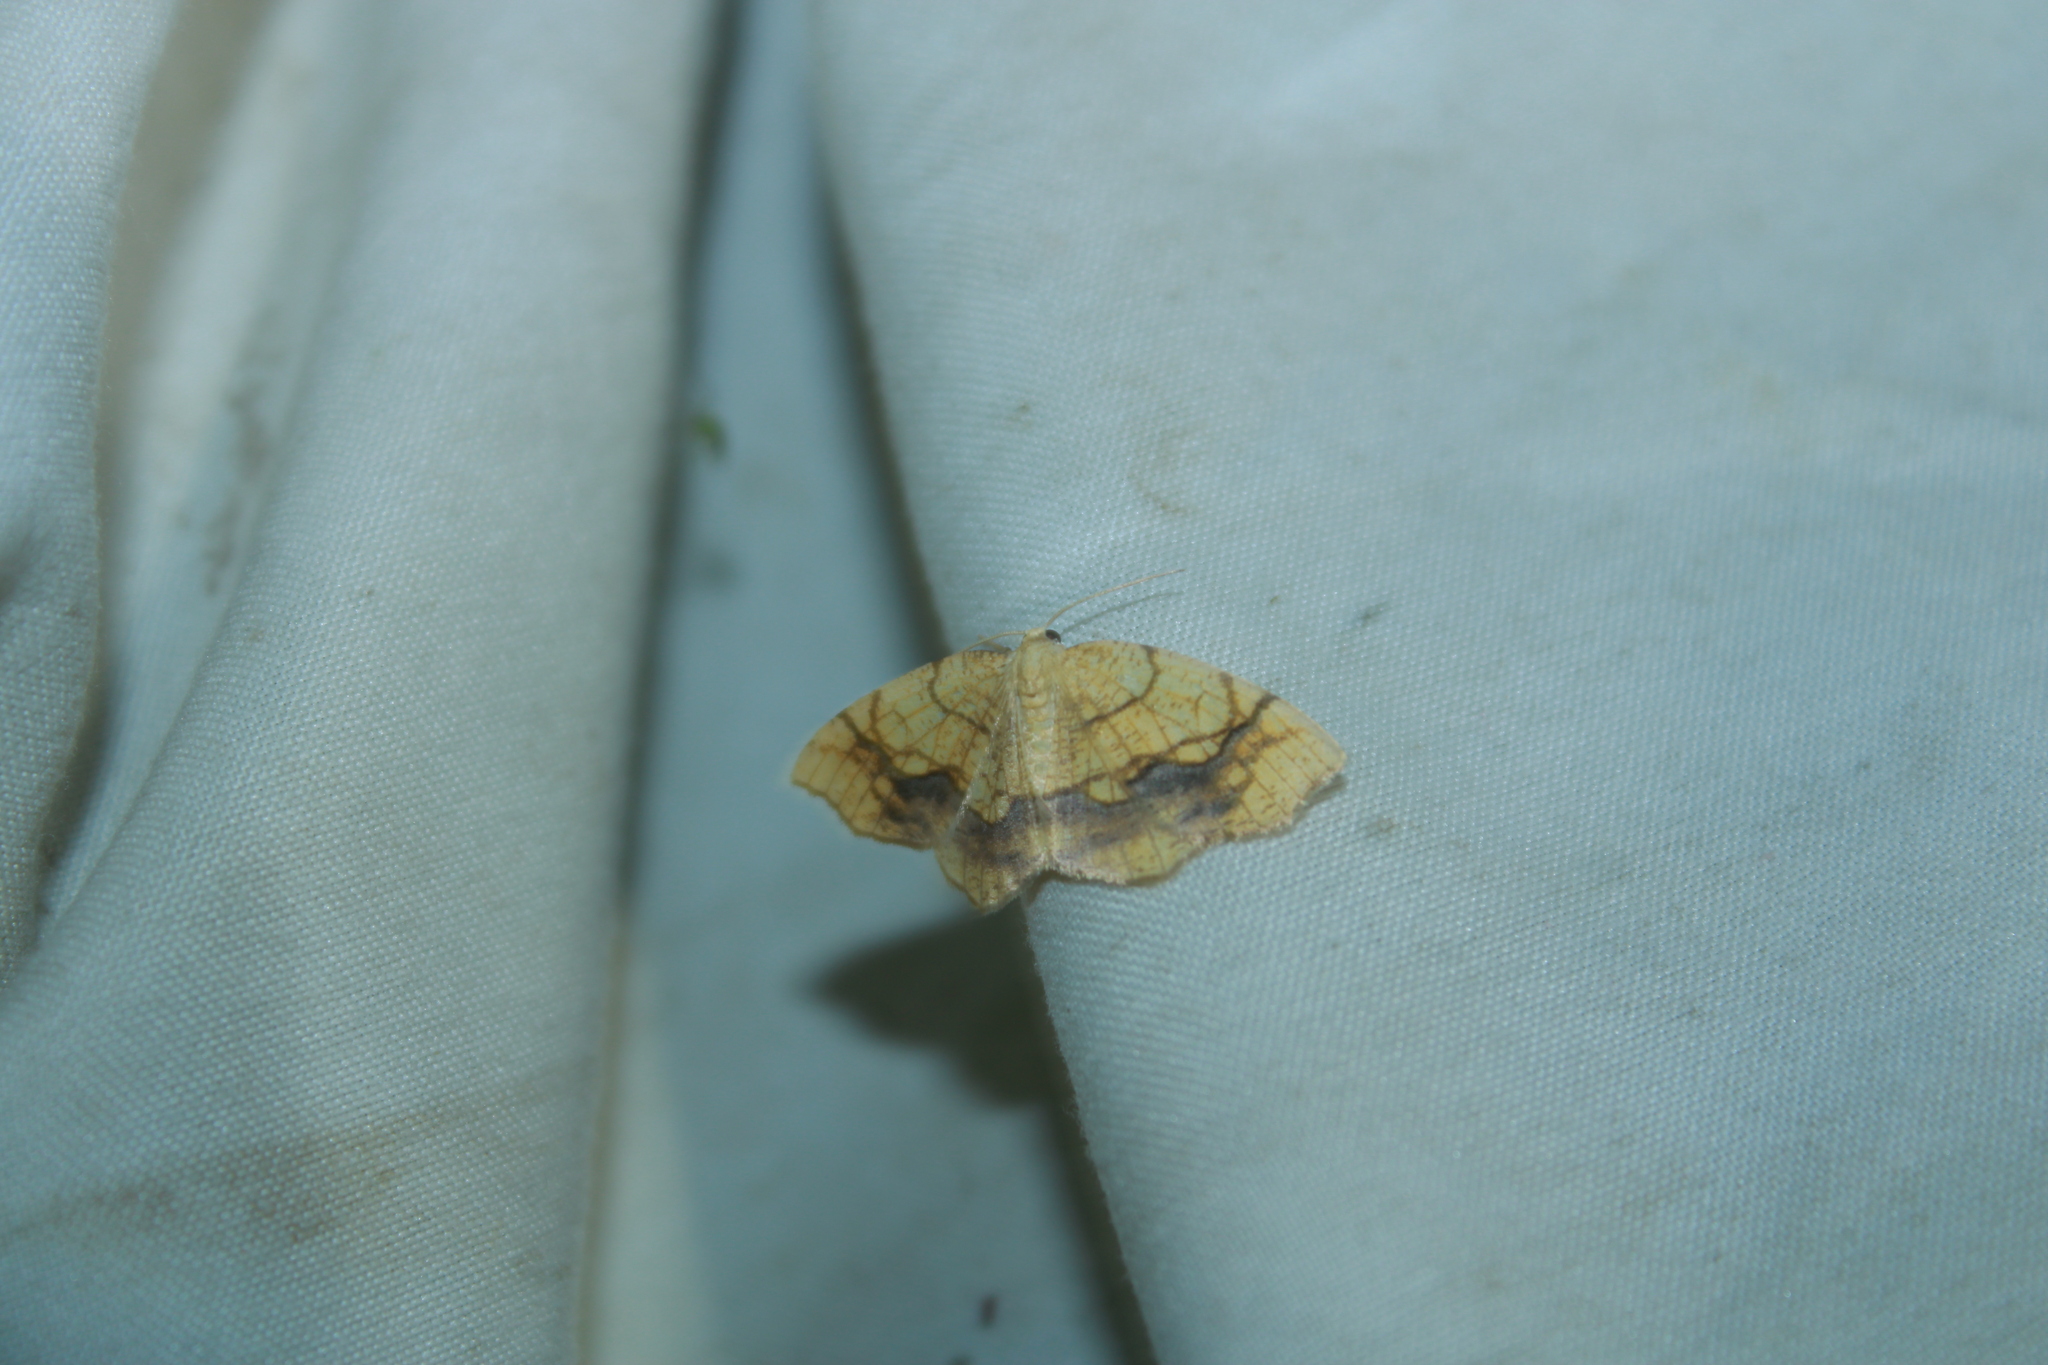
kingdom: Animalia
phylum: Arthropoda
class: Insecta
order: Lepidoptera
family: Geometridae
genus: Nematocampa
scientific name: Nematocampa resistaria
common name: Horned spanworm moth
